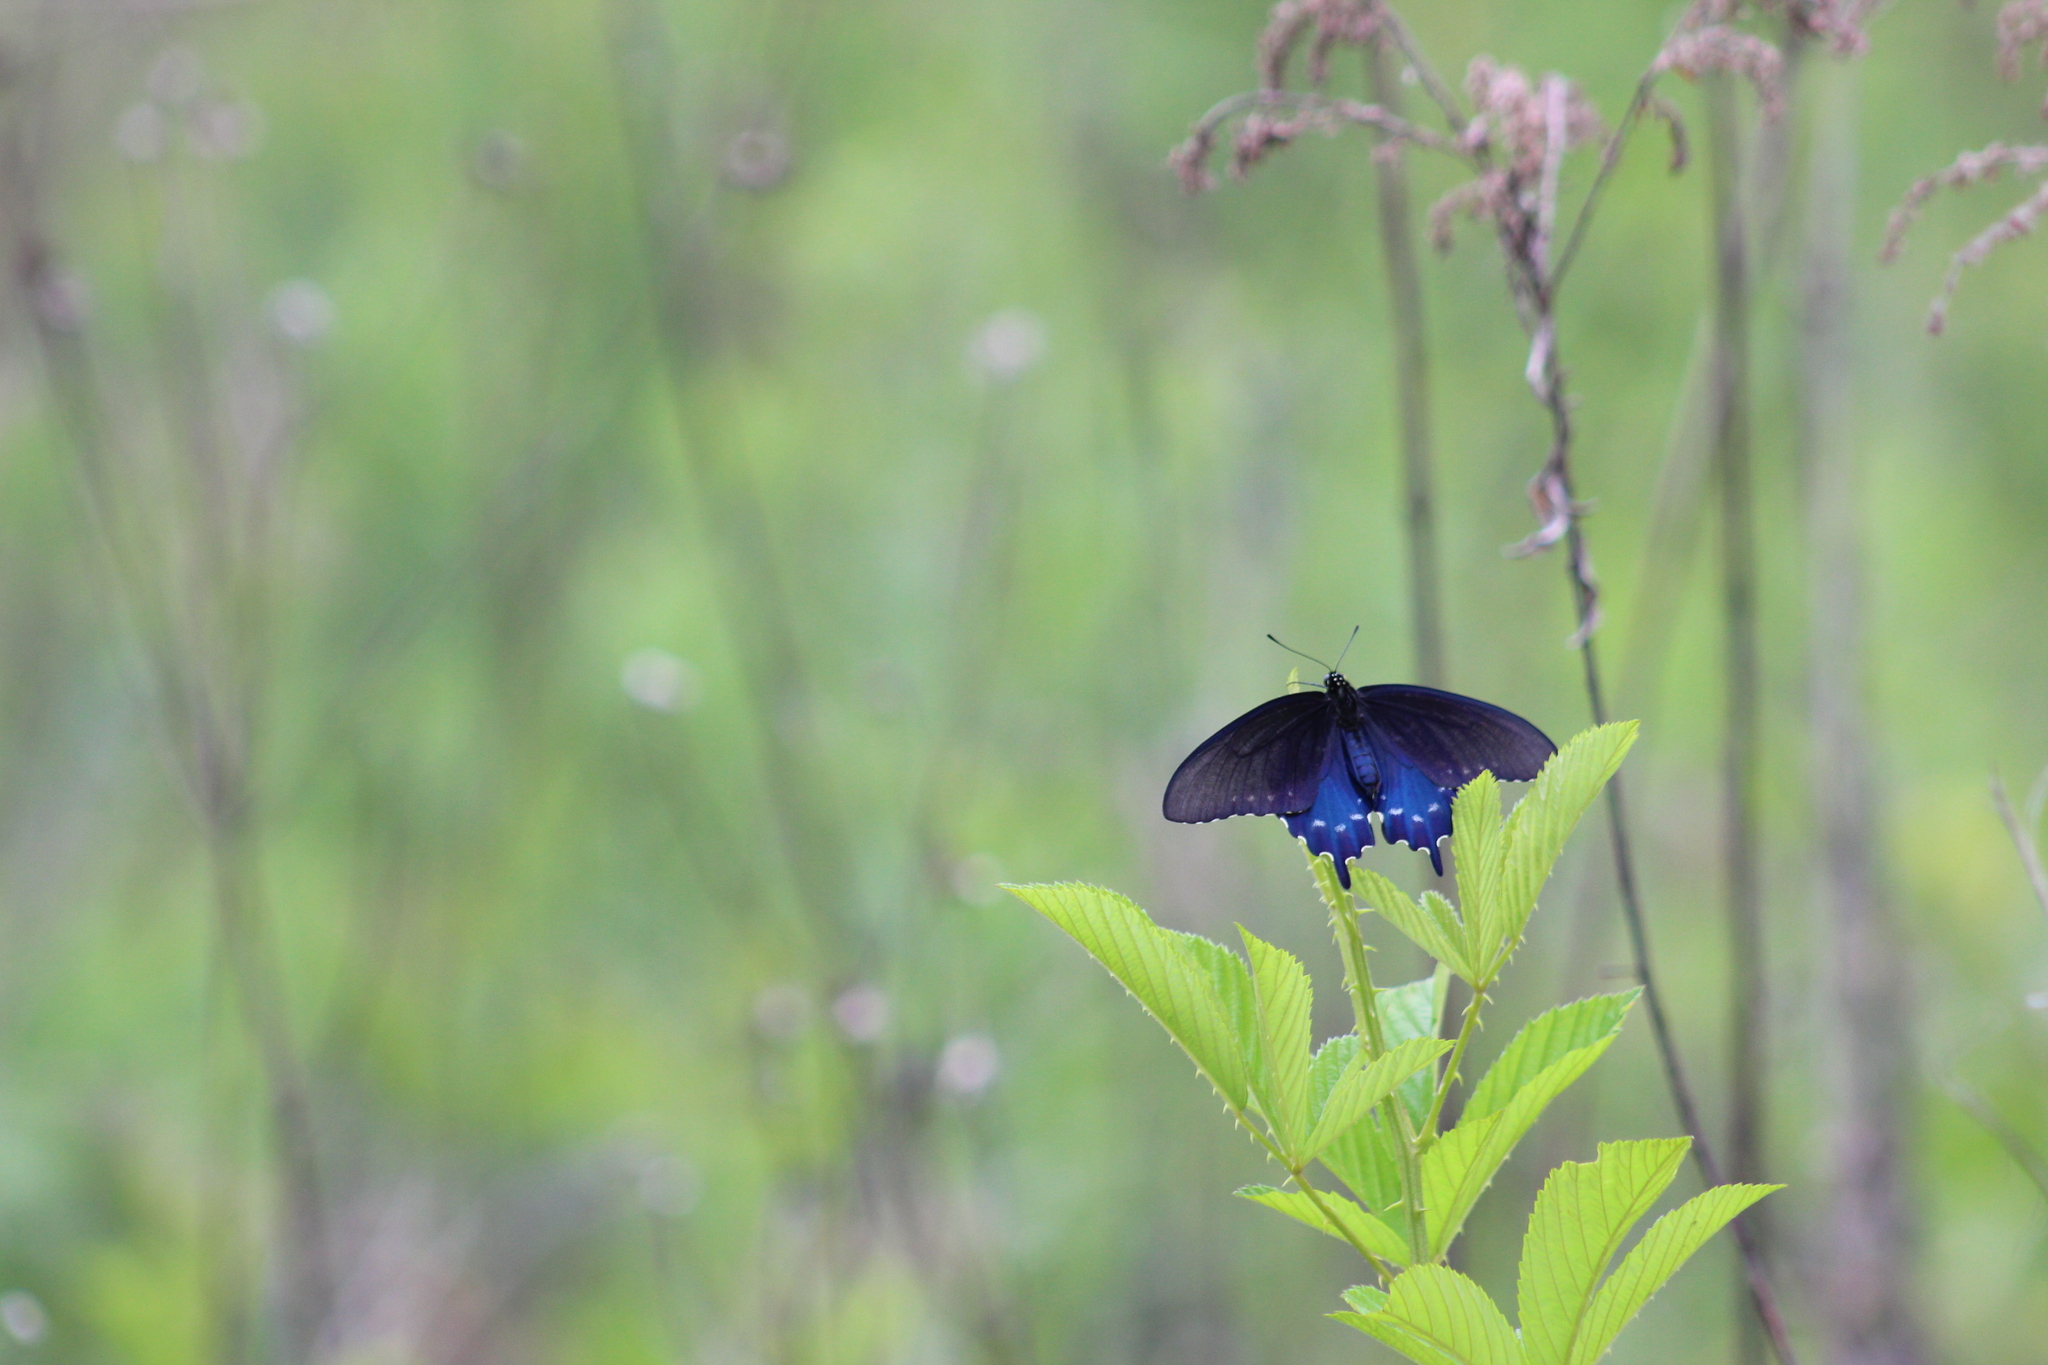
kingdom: Animalia
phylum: Arthropoda
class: Insecta
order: Lepidoptera
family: Papilionidae
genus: Battus
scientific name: Battus philenor
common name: Pipevine swallowtail
